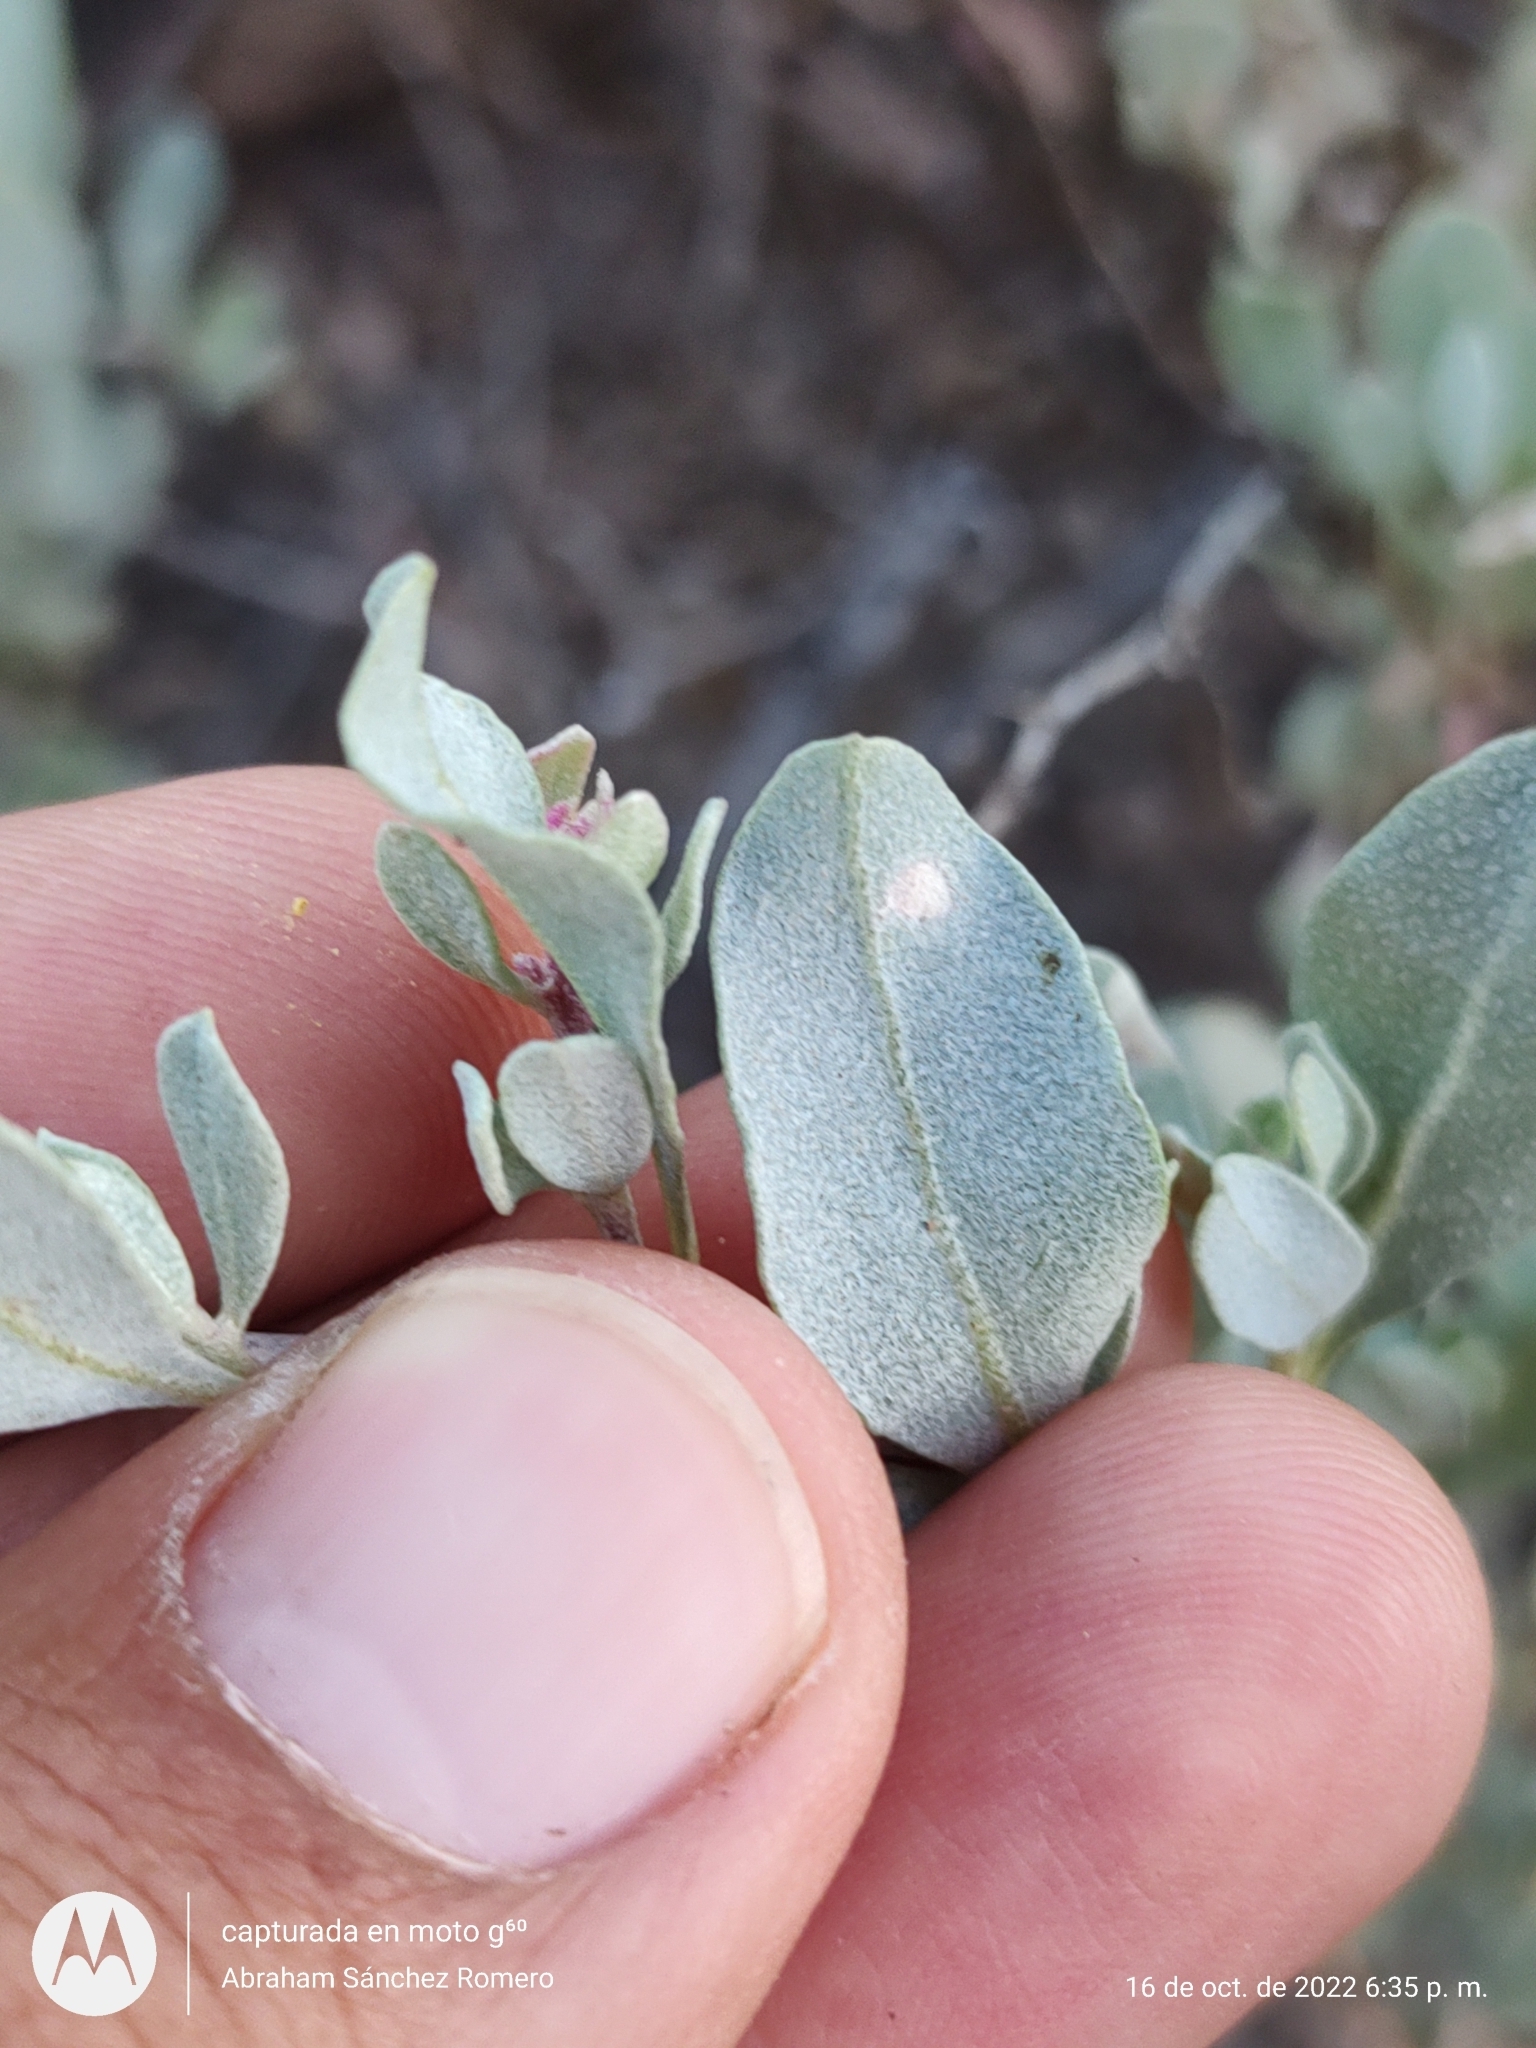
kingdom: Plantae
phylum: Tracheophyta
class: Magnoliopsida
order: Caryophyllales
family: Amaranthaceae
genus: Atriplex
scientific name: Atriplex barclayana
